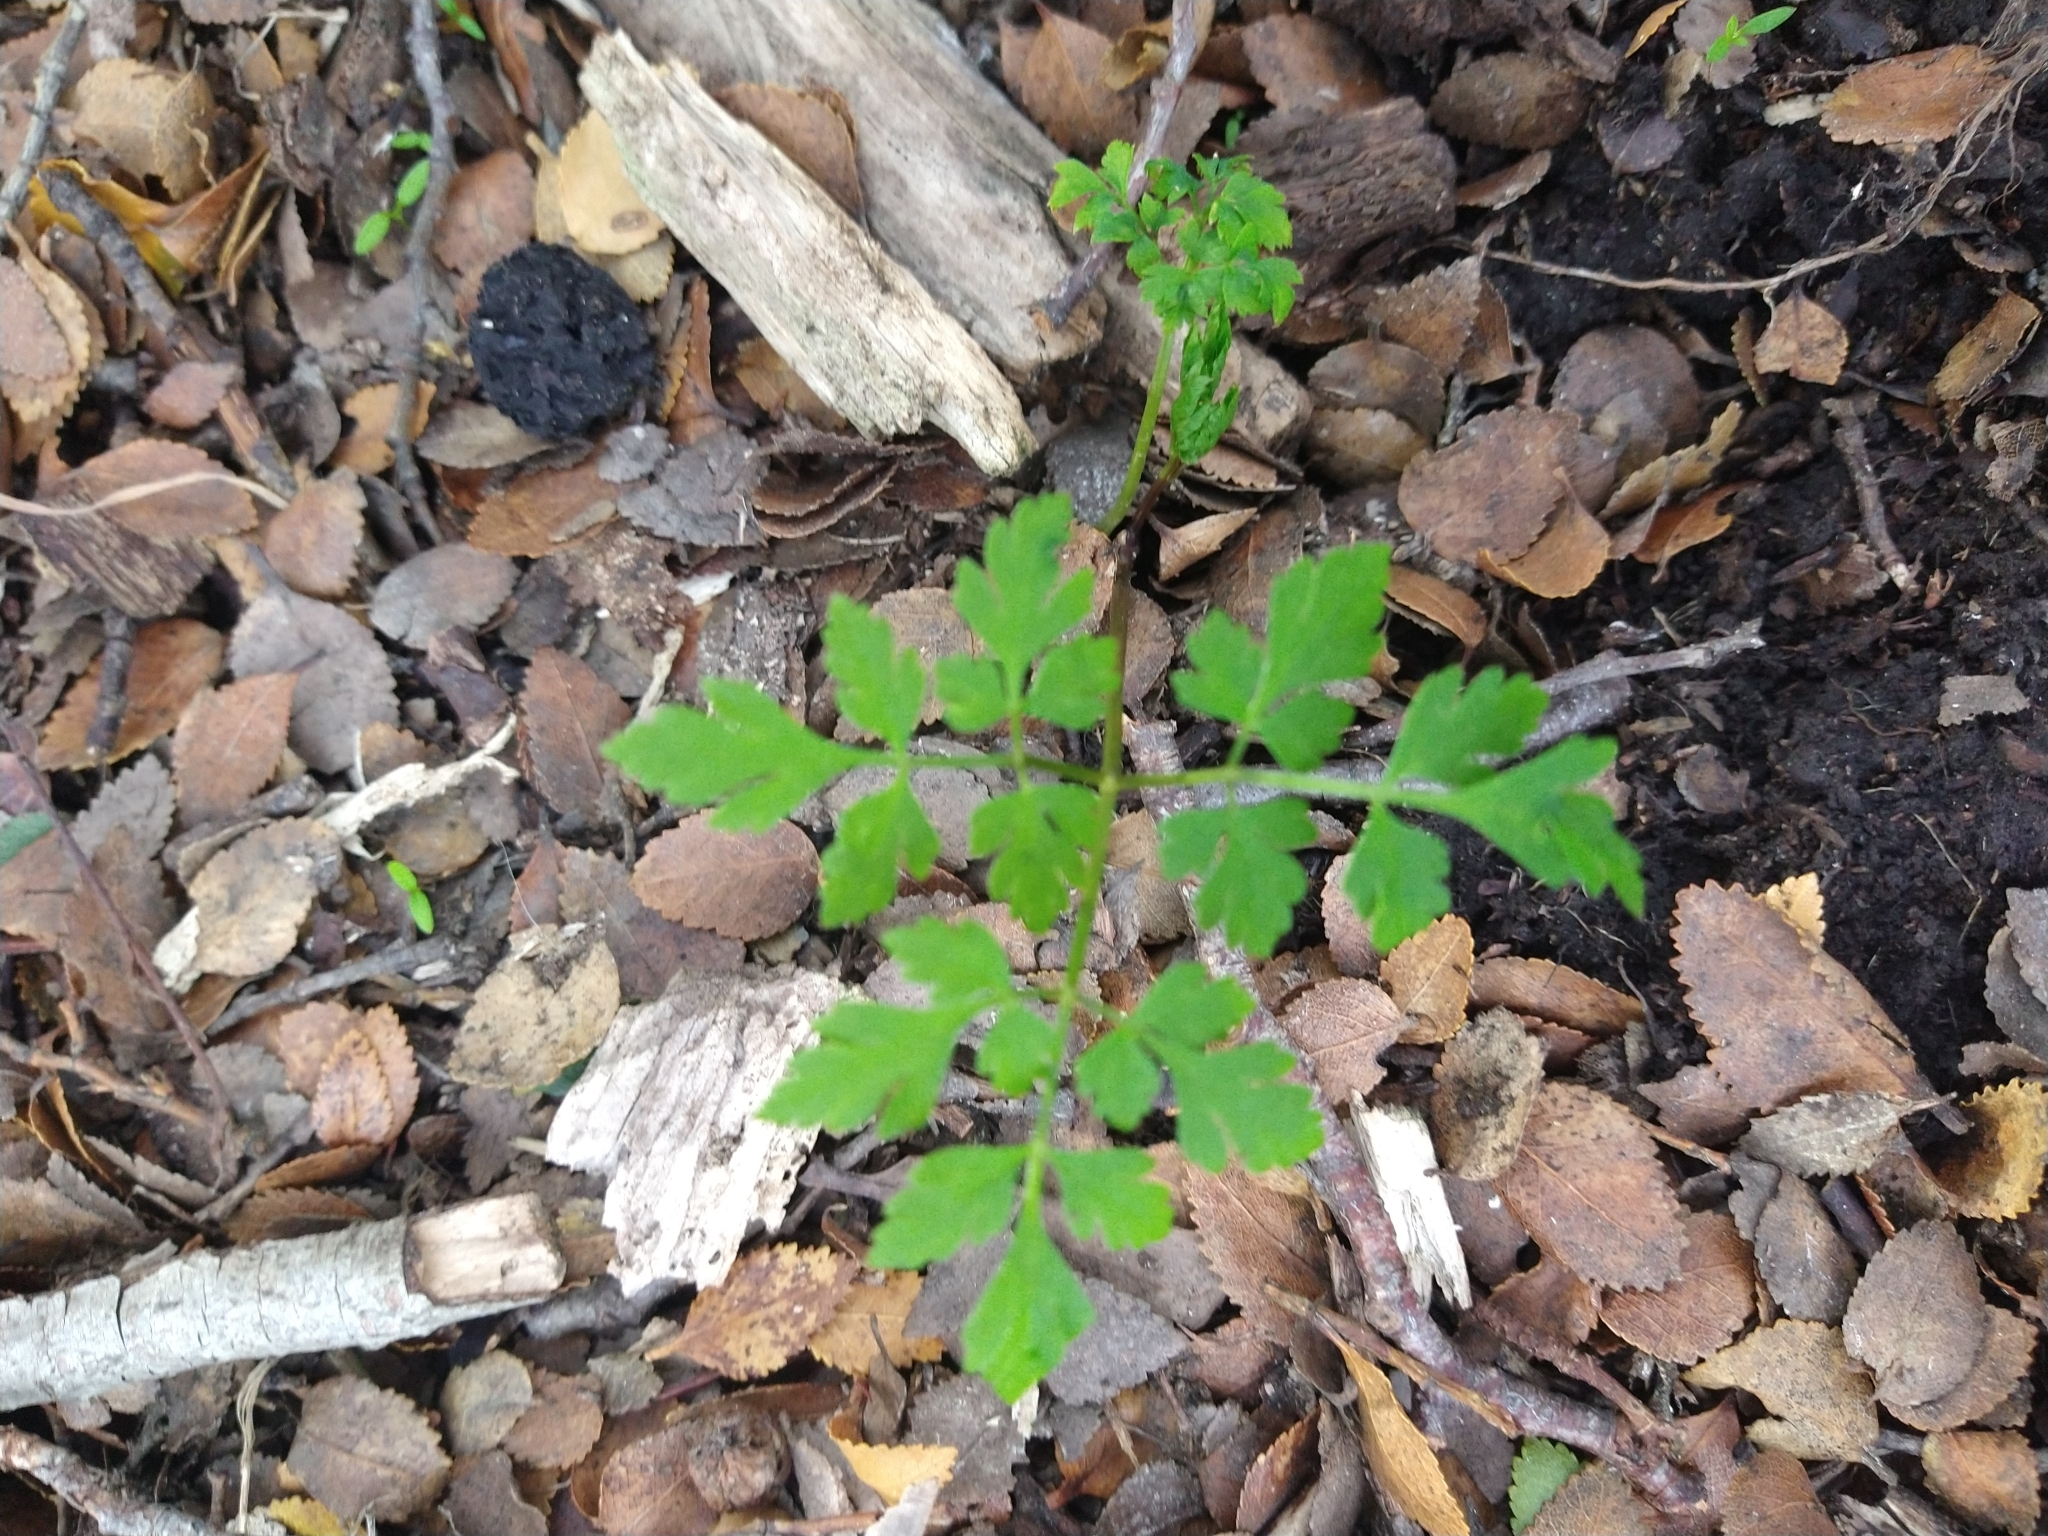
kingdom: Plantae
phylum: Tracheophyta
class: Magnoliopsida
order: Apiales
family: Apiaceae
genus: Osmorhiza
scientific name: Osmorhiza berteroi
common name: Mountain sweet cicely
